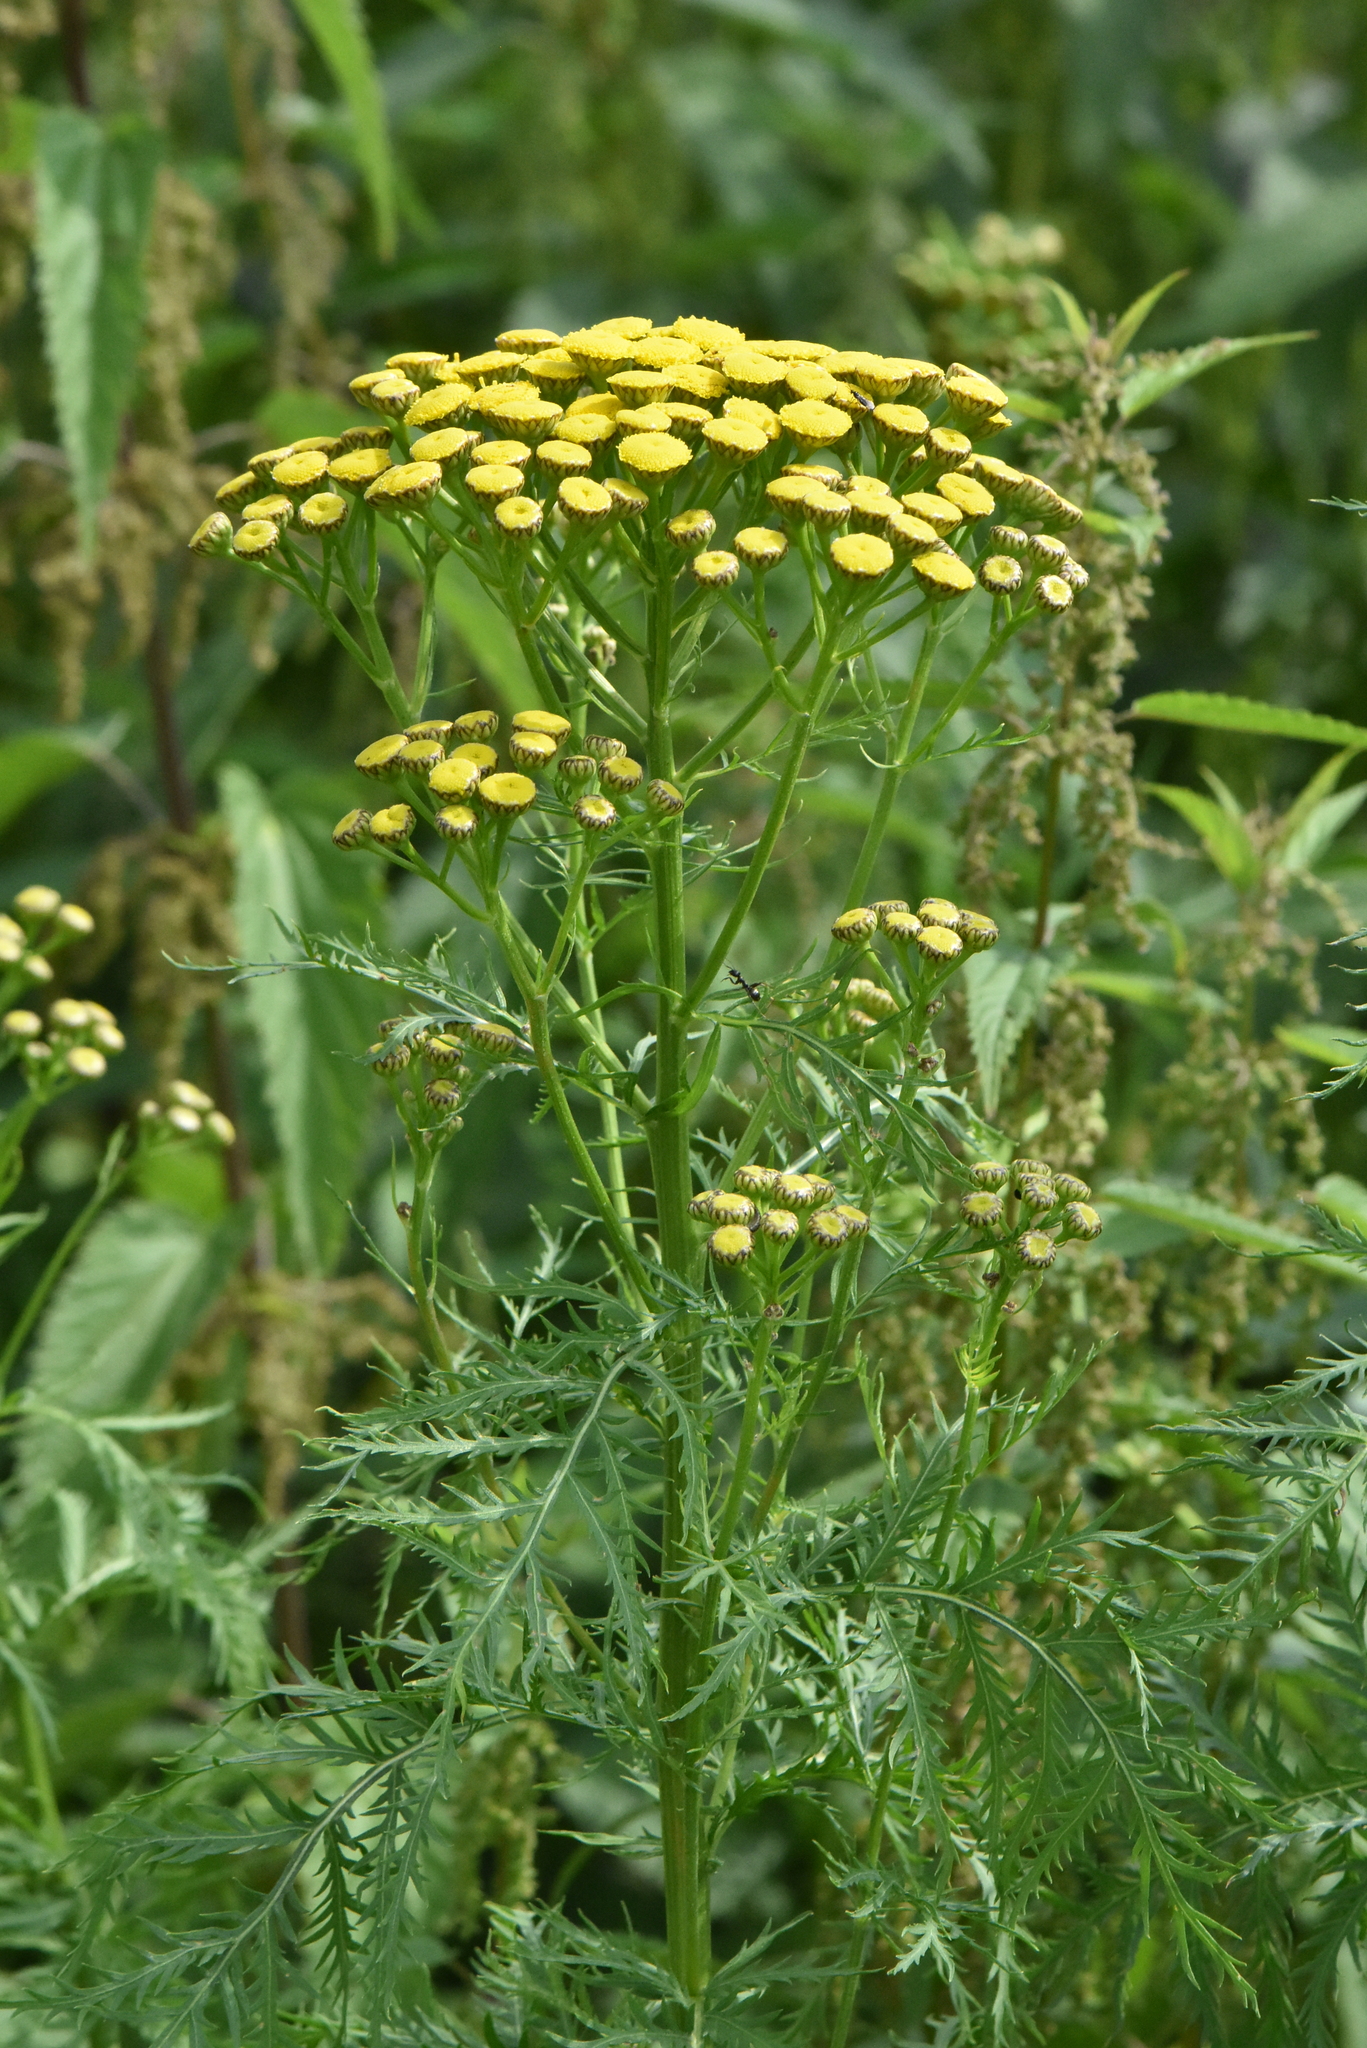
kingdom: Plantae
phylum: Tracheophyta
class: Magnoliopsida
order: Asterales
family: Asteraceae
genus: Tanacetum
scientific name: Tanacetum vulgare
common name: Common tansy
